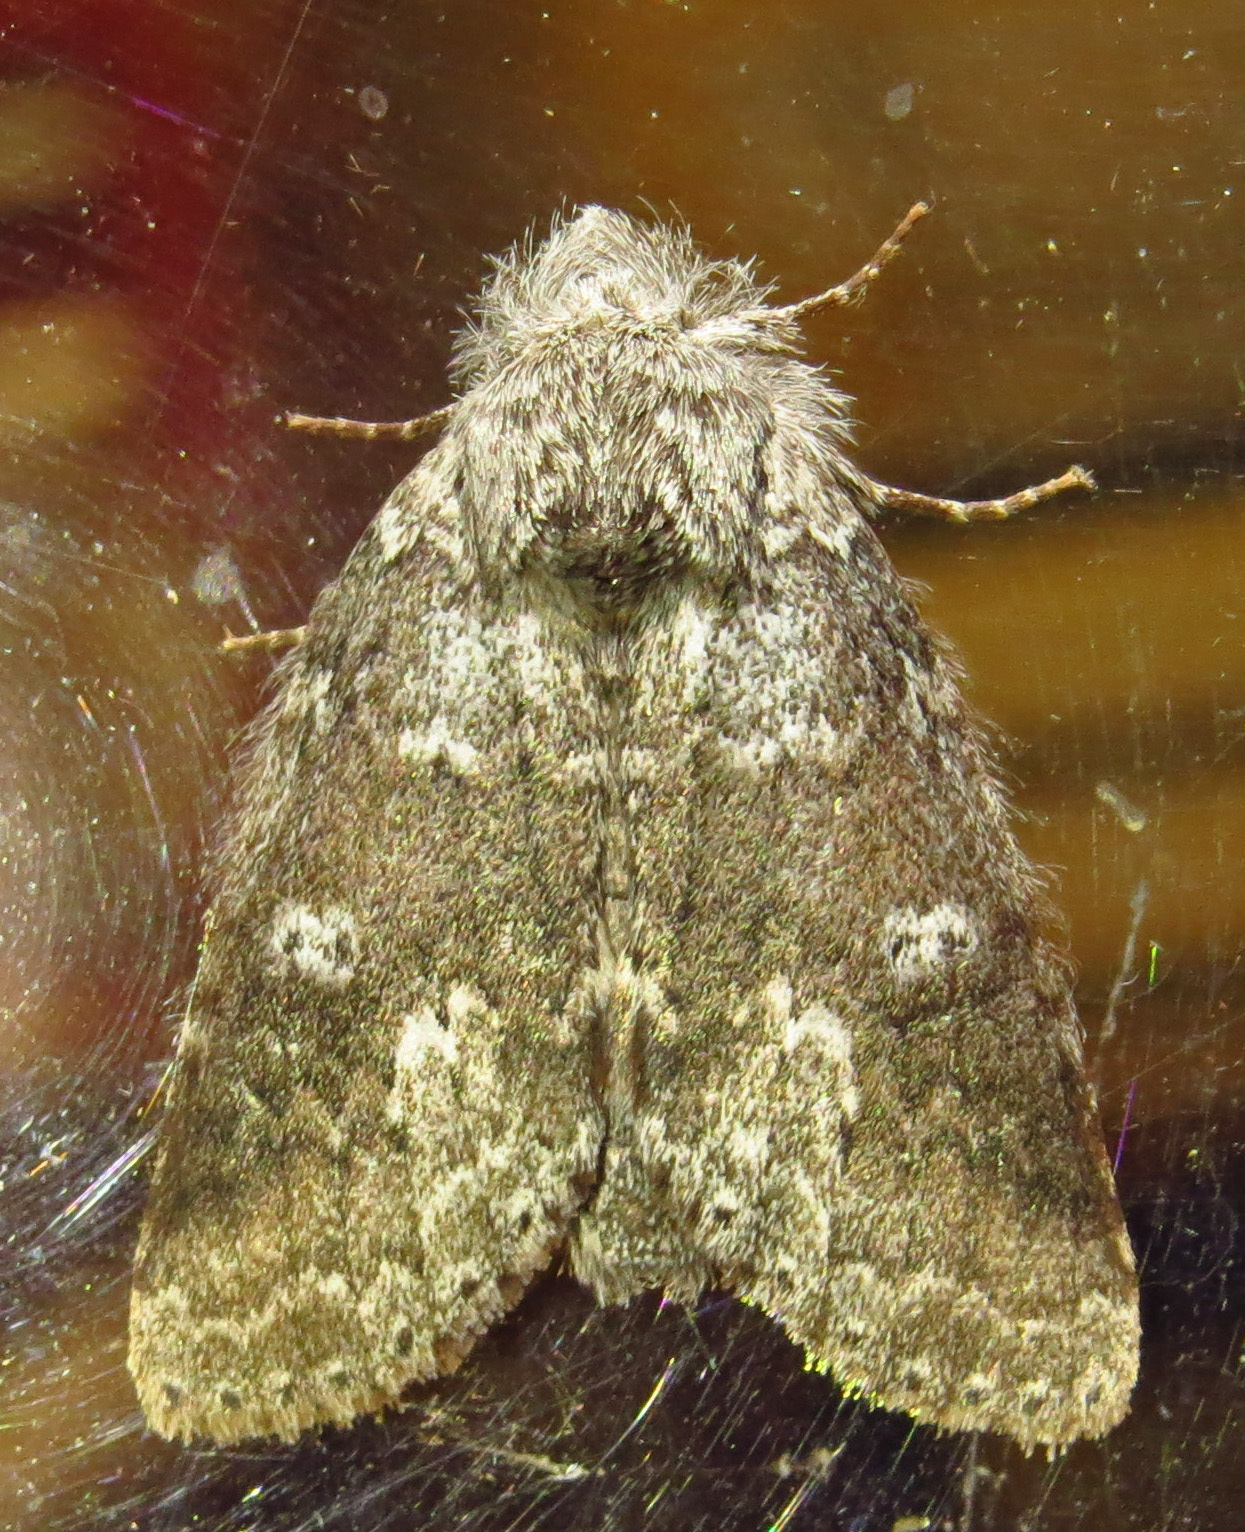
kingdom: Animalia
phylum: Arthropoda
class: Insecta
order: Lepidoptera
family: Notodontidae
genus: Lochmaeus
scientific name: Lochmaeus manteo
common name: Variable oakleaf caterpillar moth
